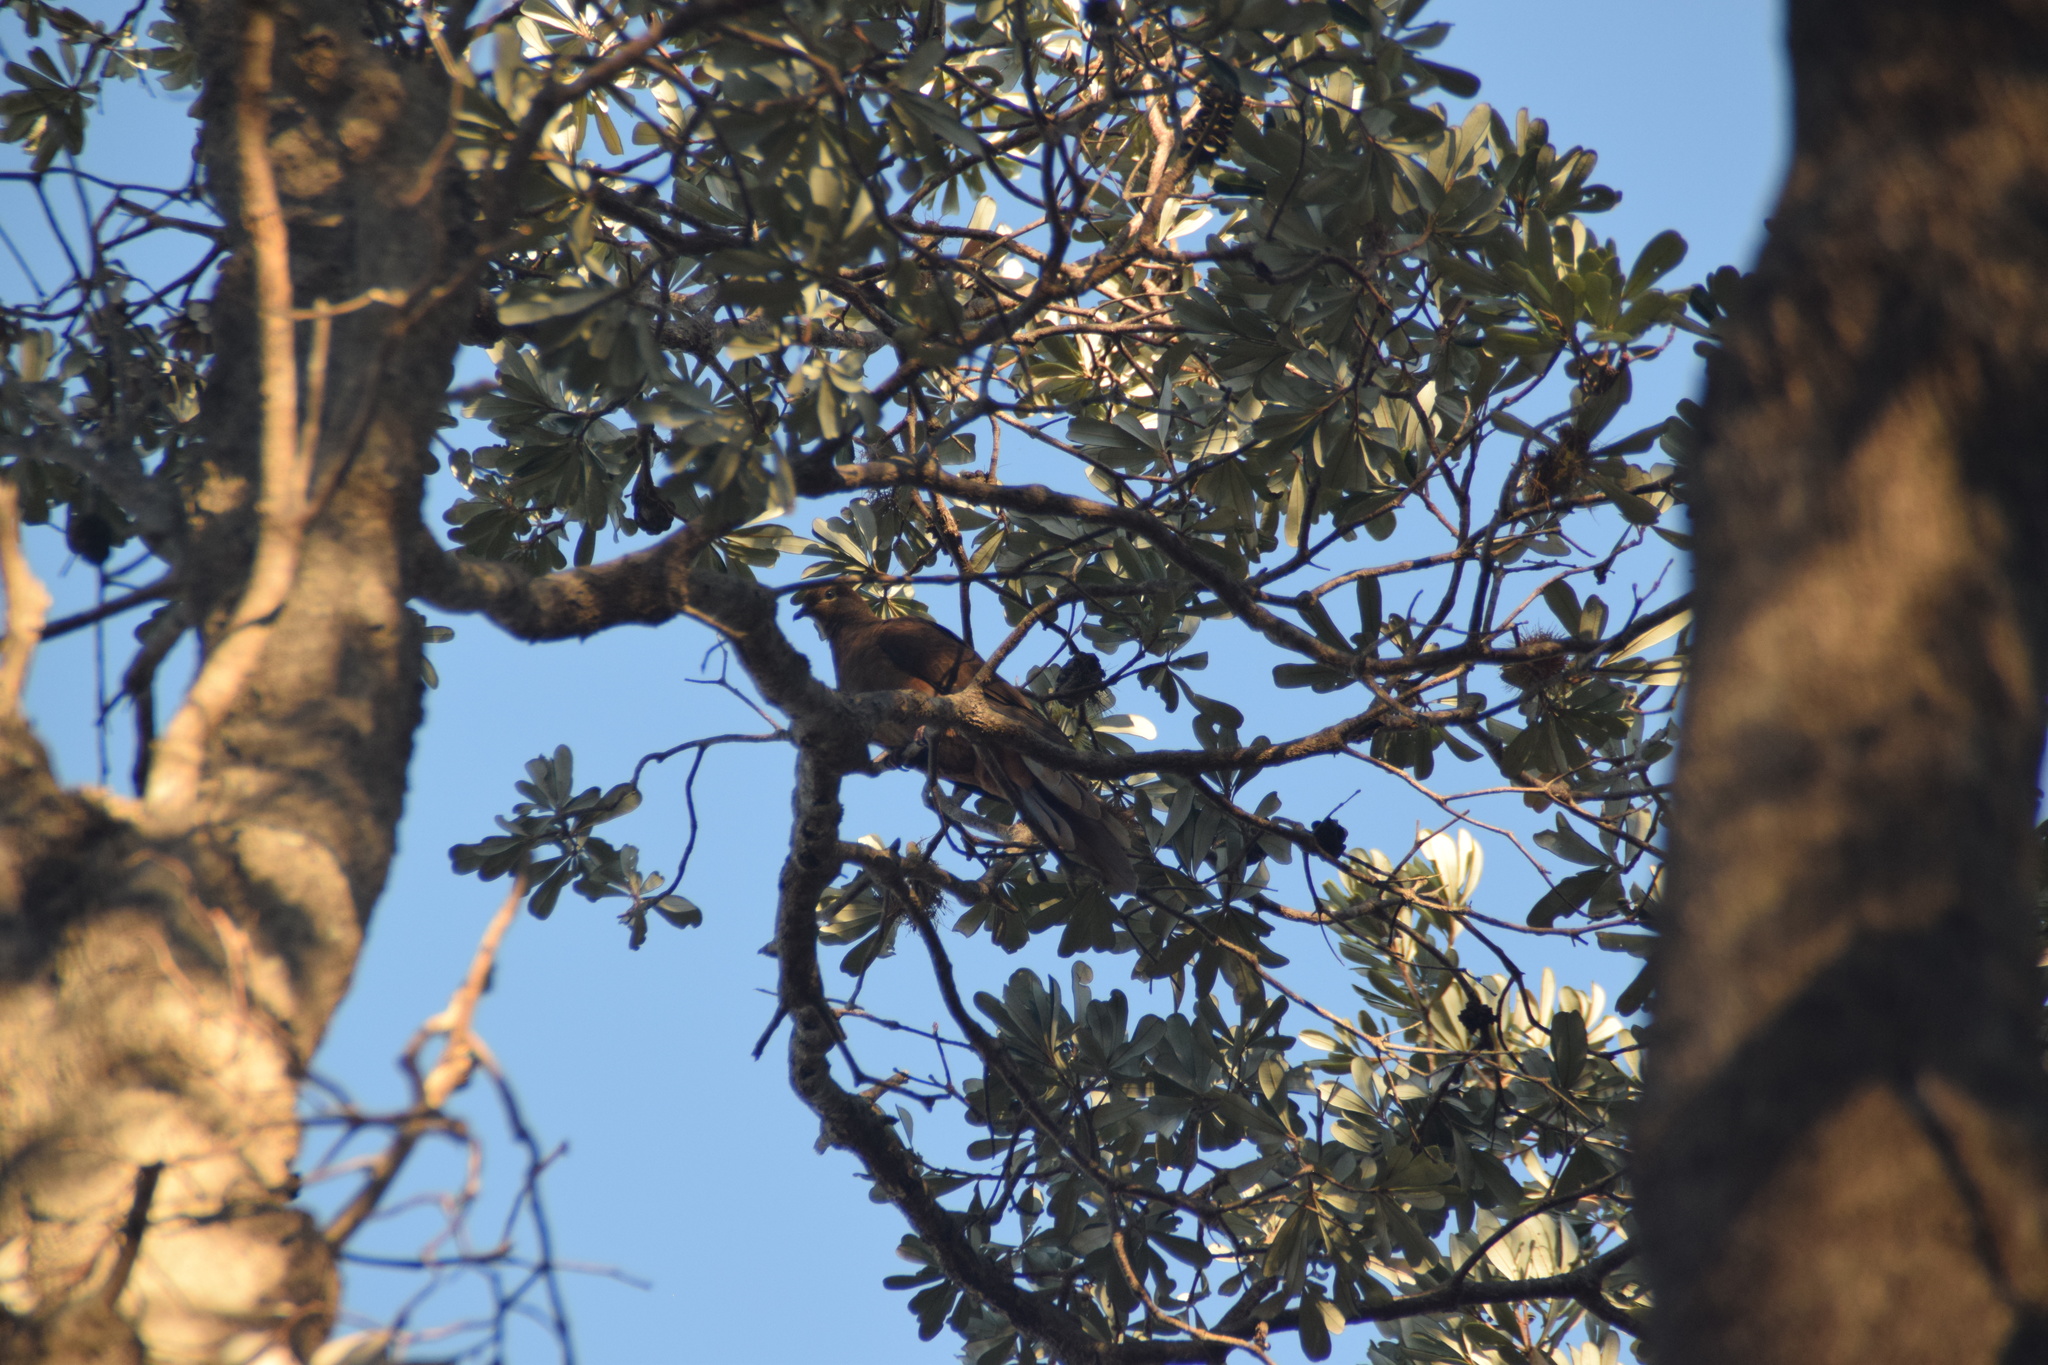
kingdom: Animalia
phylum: Chordata
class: Aves
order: Columbiformes
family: Columbidae
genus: Macropygia
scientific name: Macropygia phasianella
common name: Brown cuckoo-dove
